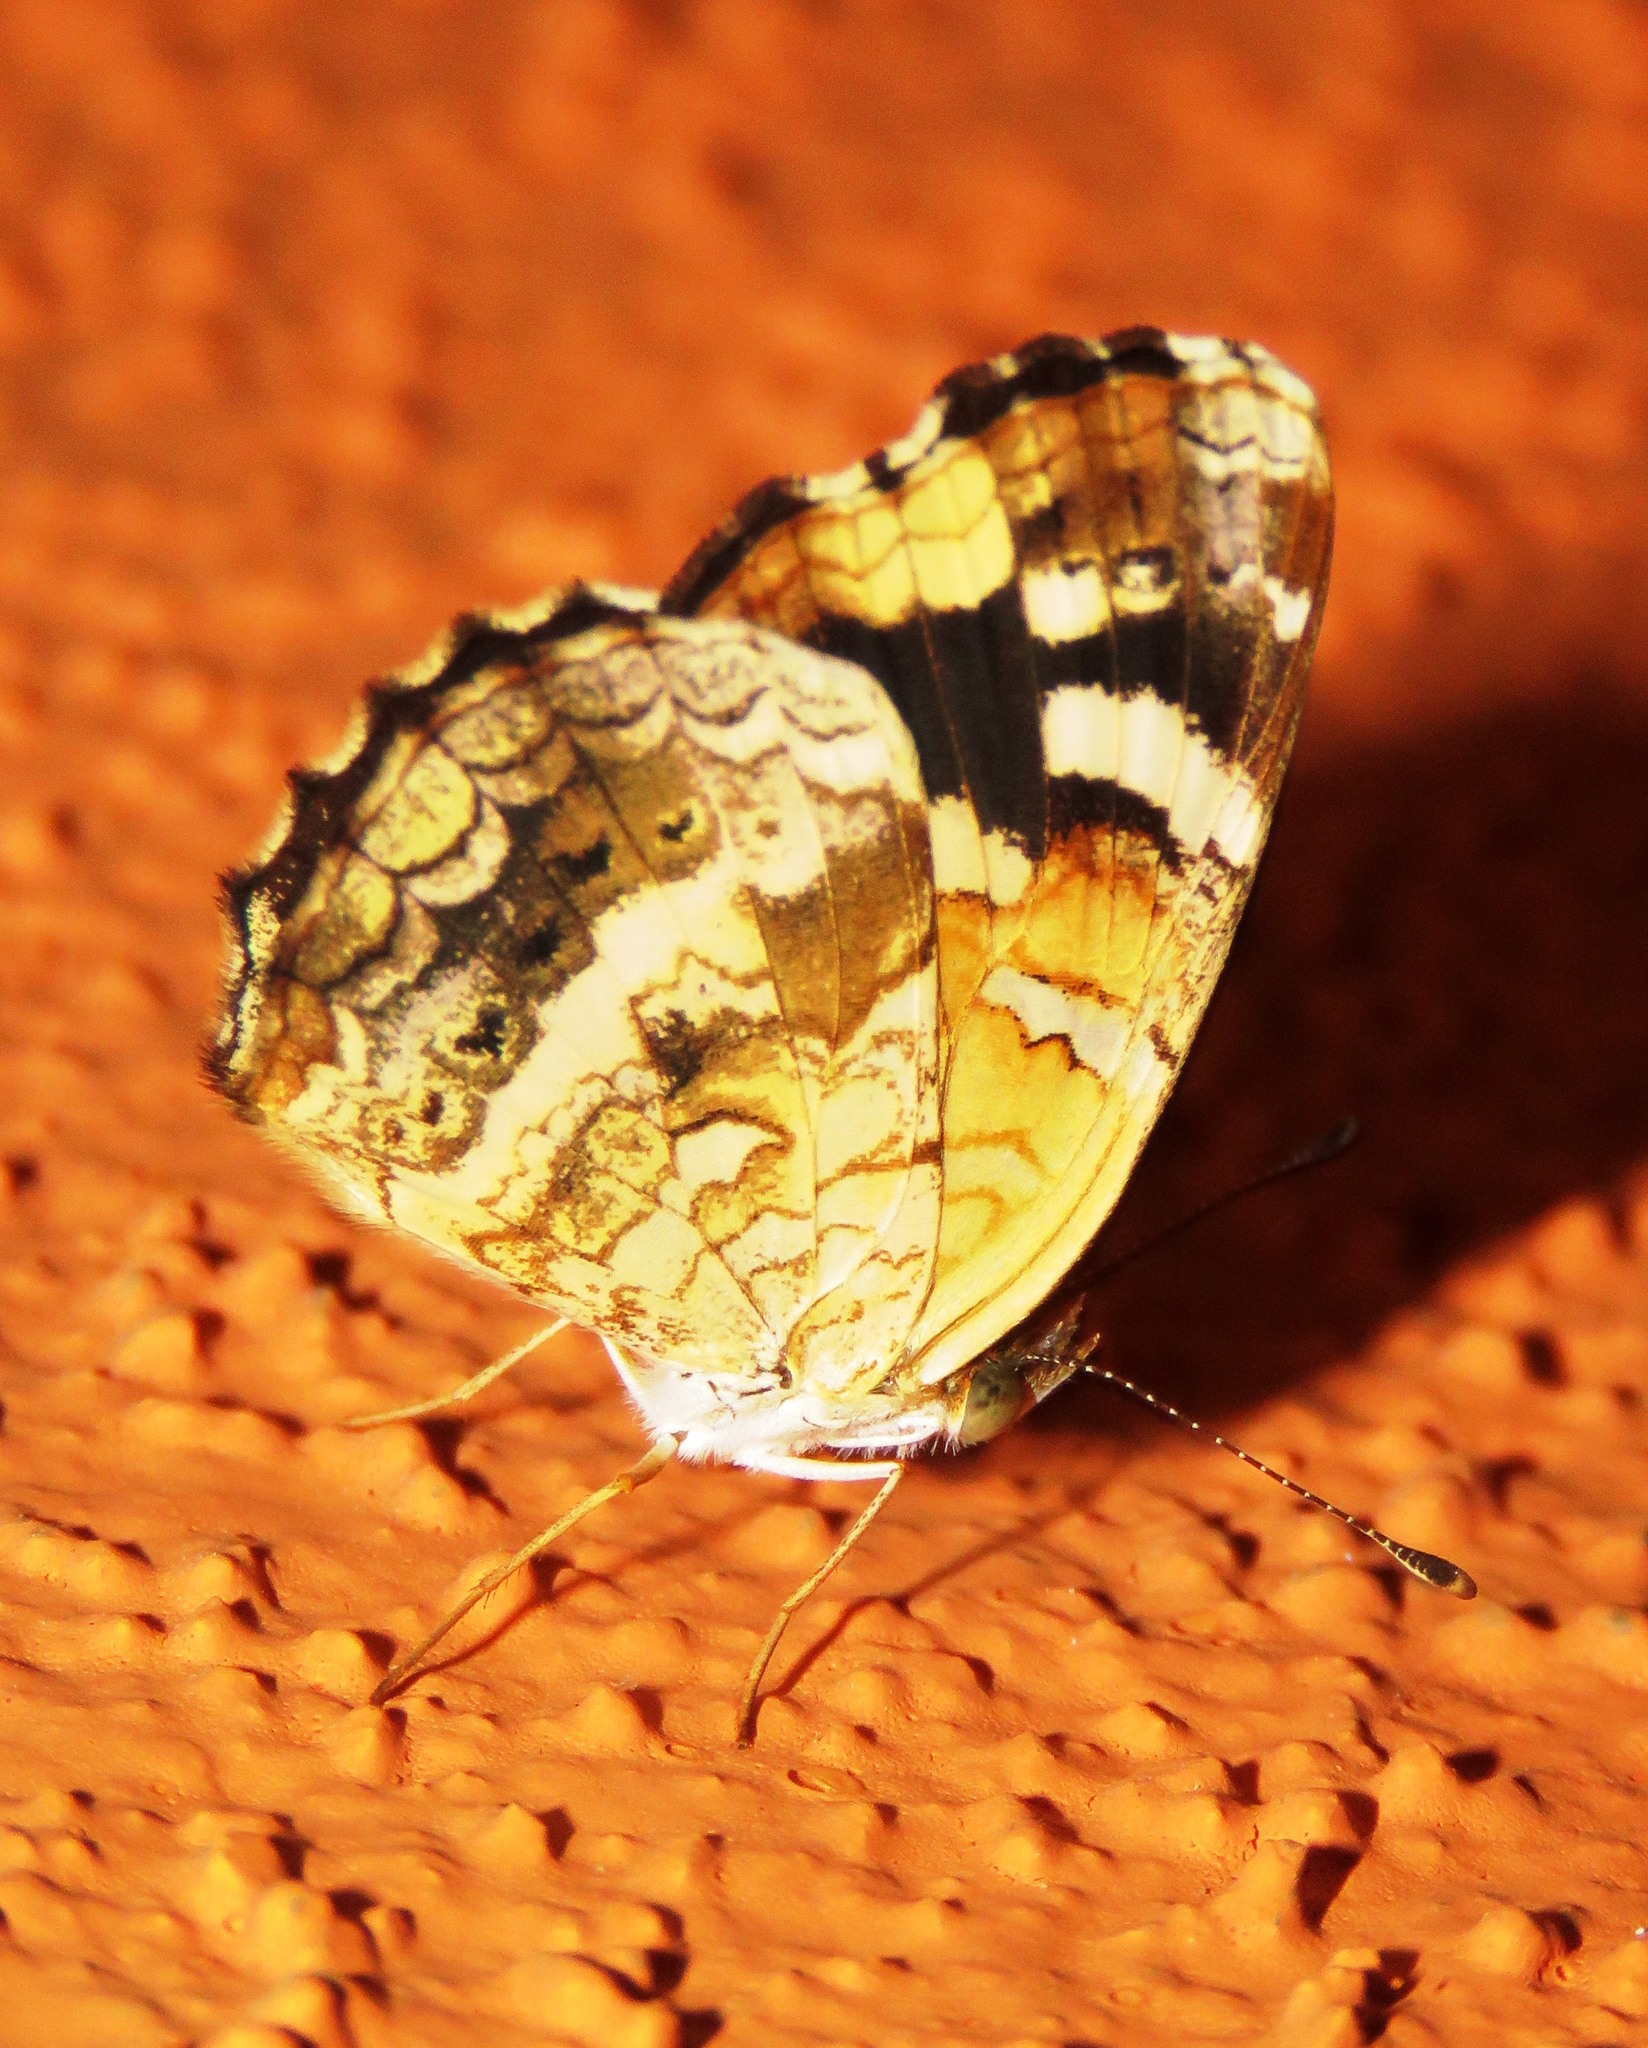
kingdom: Animalia
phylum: Arthropoda
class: Insecta
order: Lepidoptera
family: Nymphalidae
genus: Anthanassa
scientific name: Anthanassa tulcis
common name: Pale-banded crescent
